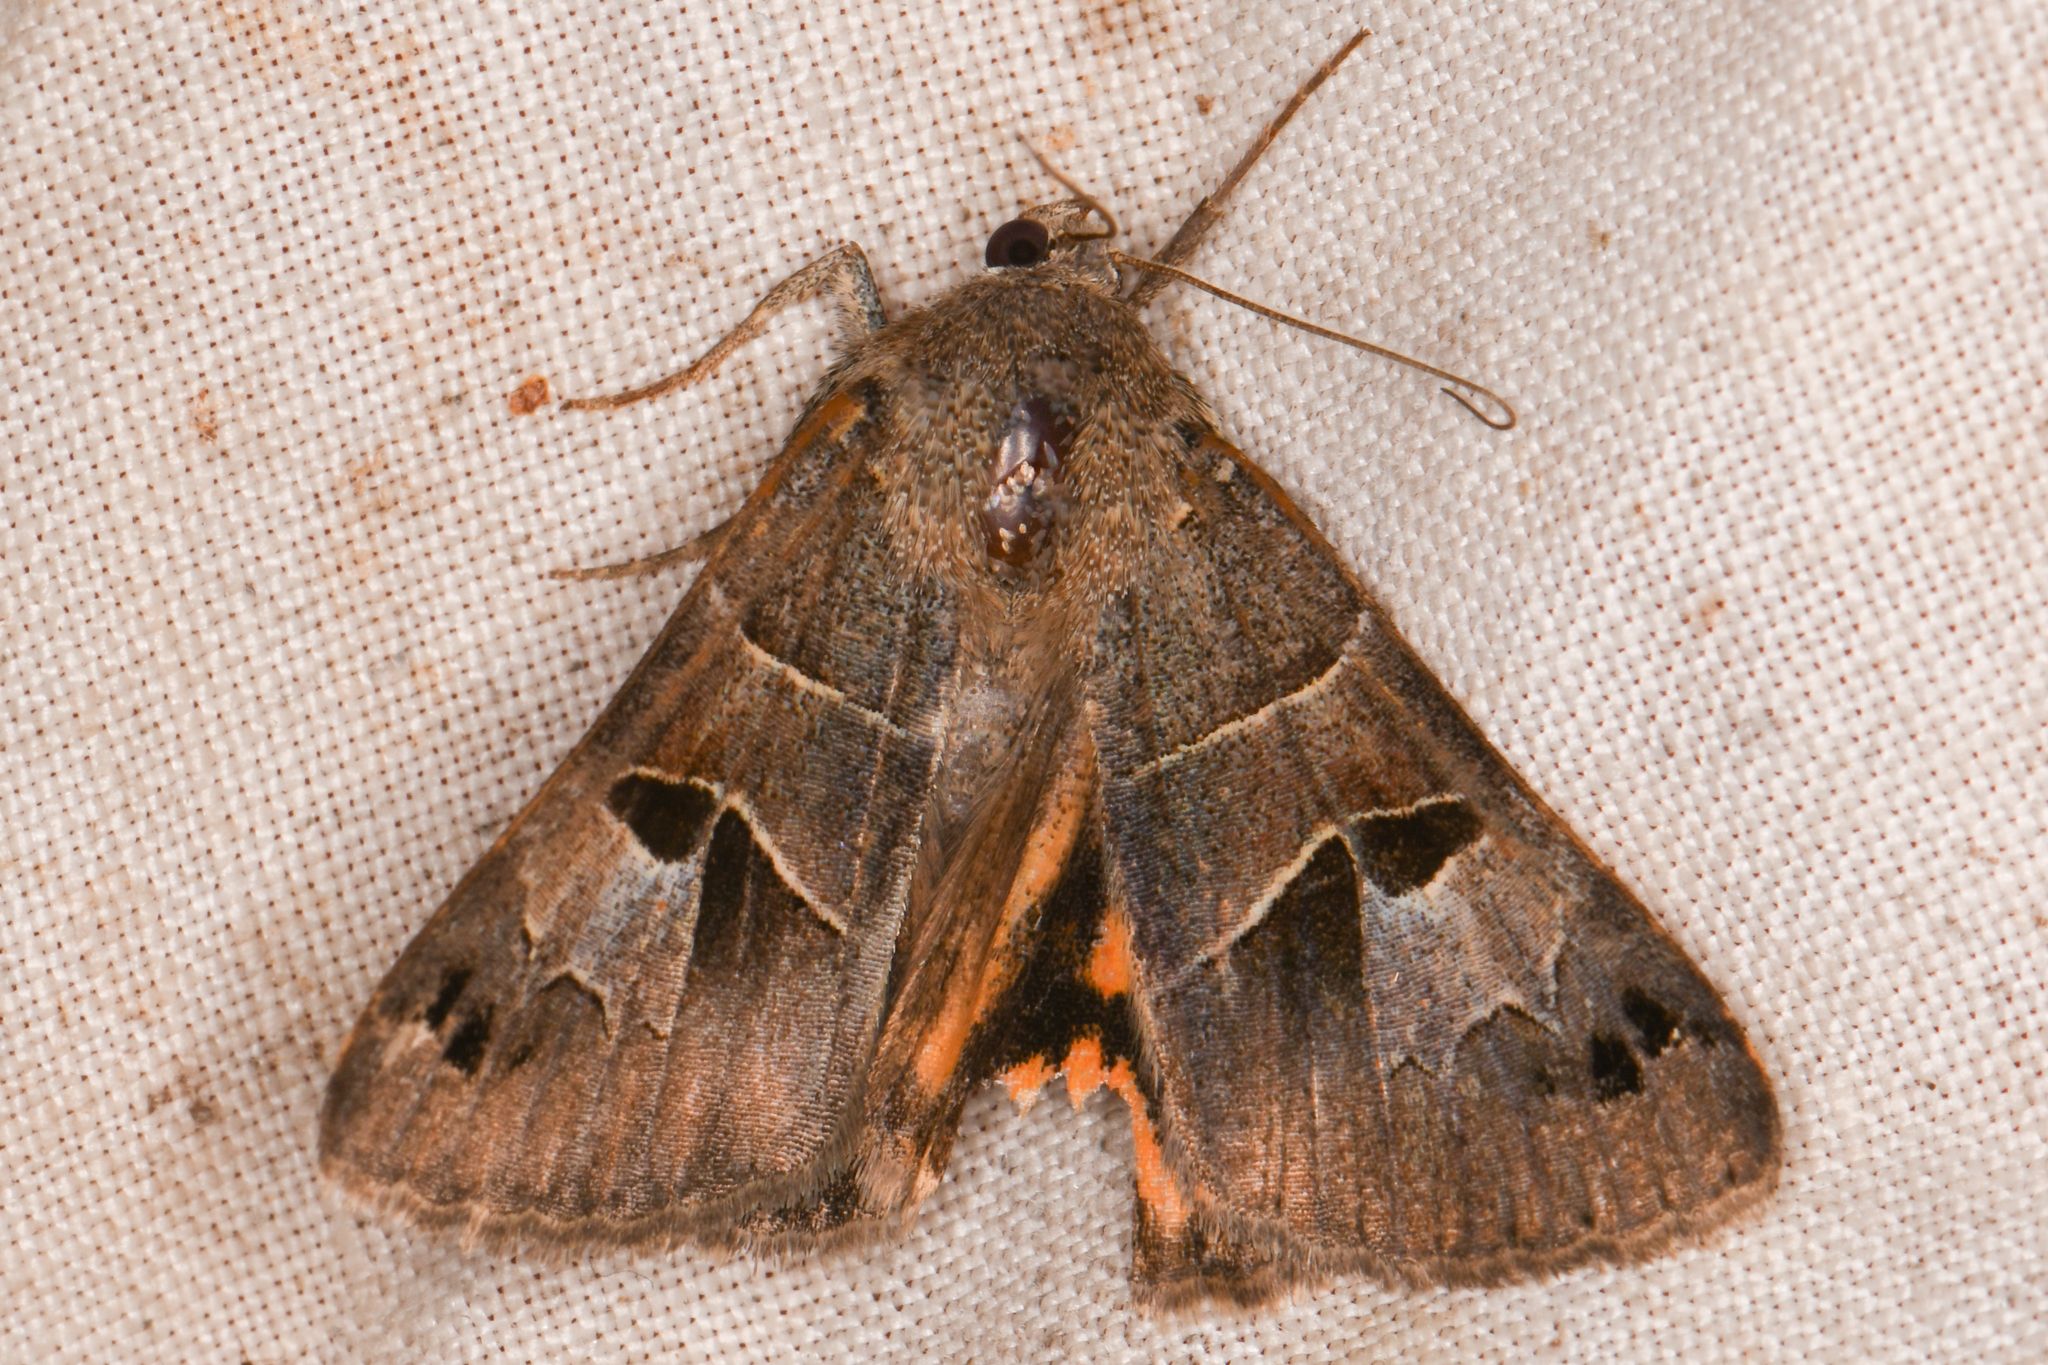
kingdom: Animalia
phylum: Arthropoda
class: Insecta
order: Lepidoptera
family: Erebidae
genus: Drasteria
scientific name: Drasteria edwardsii
